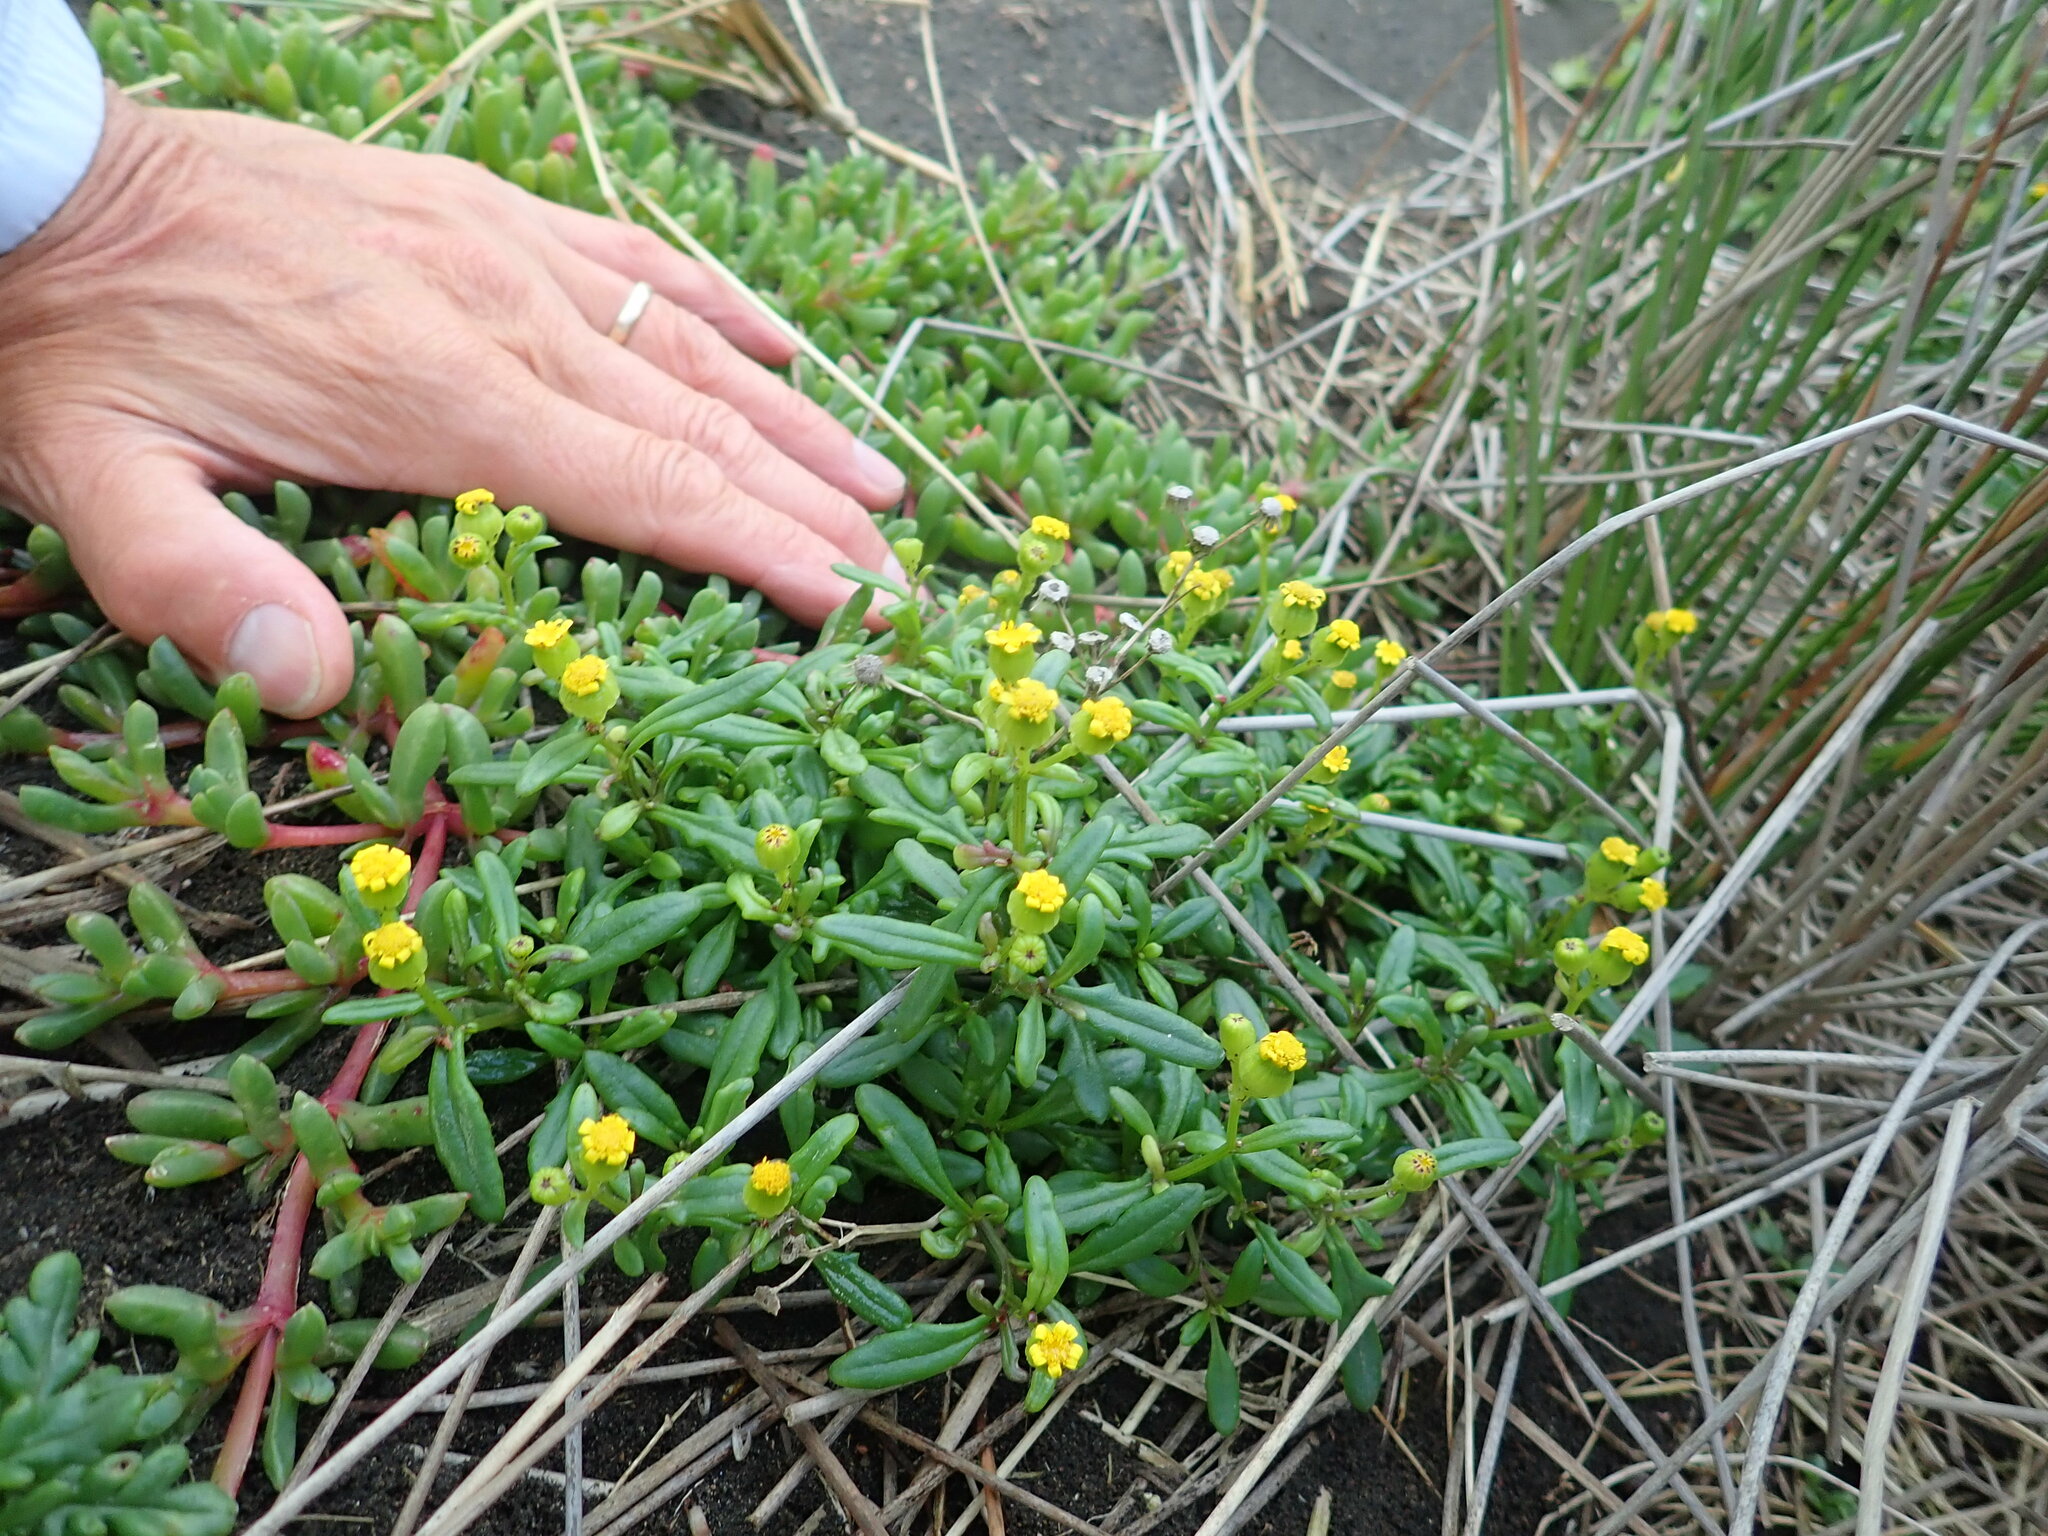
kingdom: Plantae
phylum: Tracheophyta
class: Magnoliopsida
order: Asterales
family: Asteraceae
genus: Senecio
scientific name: Senecio lautus
